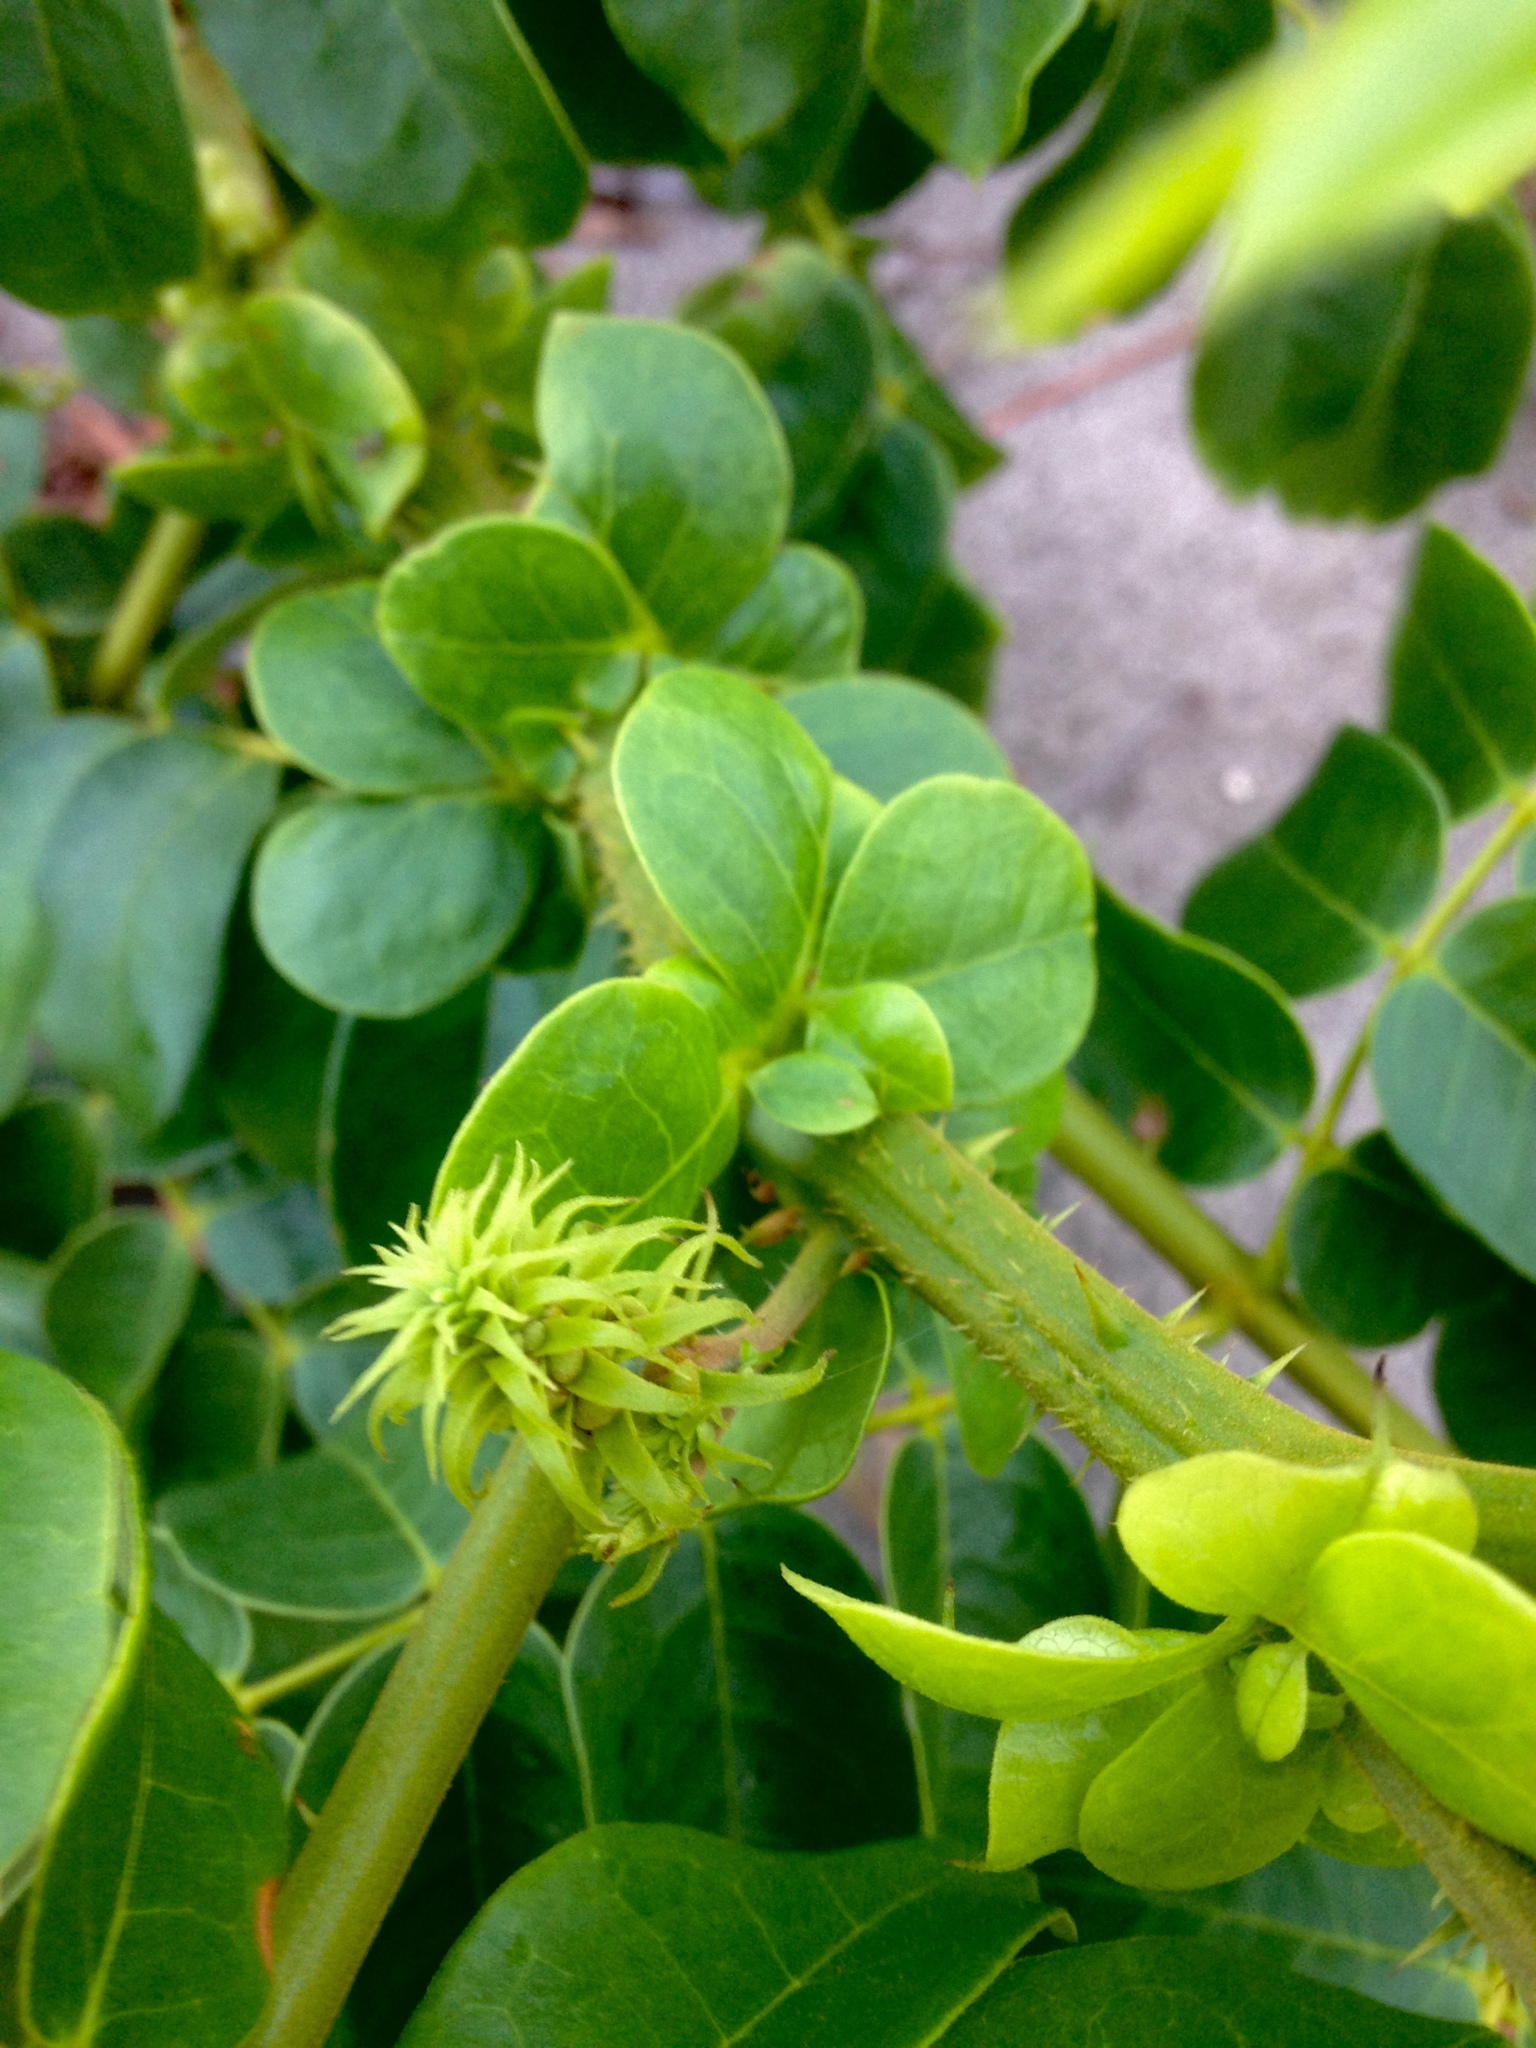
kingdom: Plantae
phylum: Tracheophyta
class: Magnoliopsida
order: Fabales
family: Fabaceae
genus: Guilandina
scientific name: Guilandina bonduc
